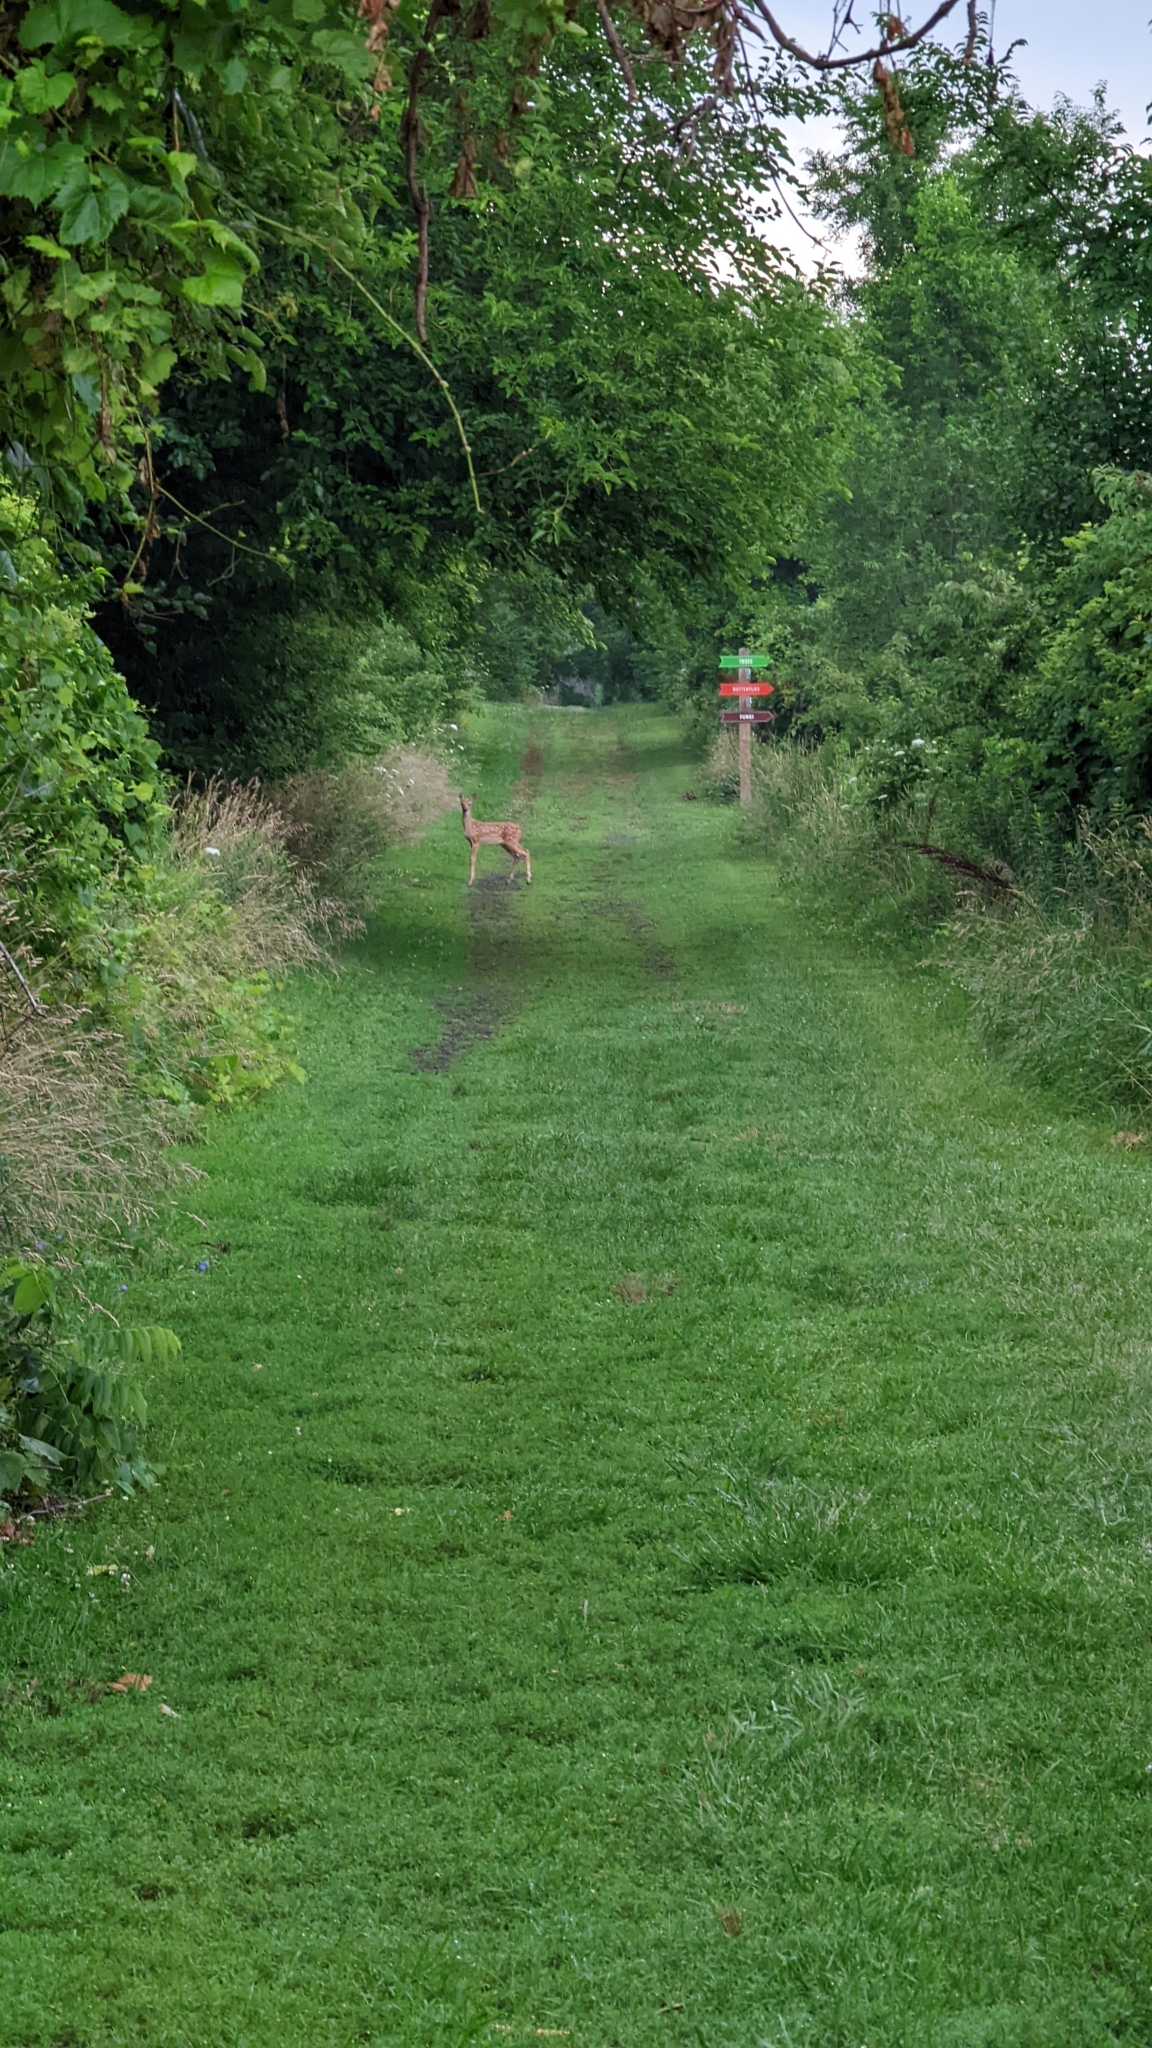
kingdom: Animalia
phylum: Chordata
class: Mammalia
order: Artiodactyla
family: Cervidae
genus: Odocoileus
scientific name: Odocoileus virginianus
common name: White-tailed deer
